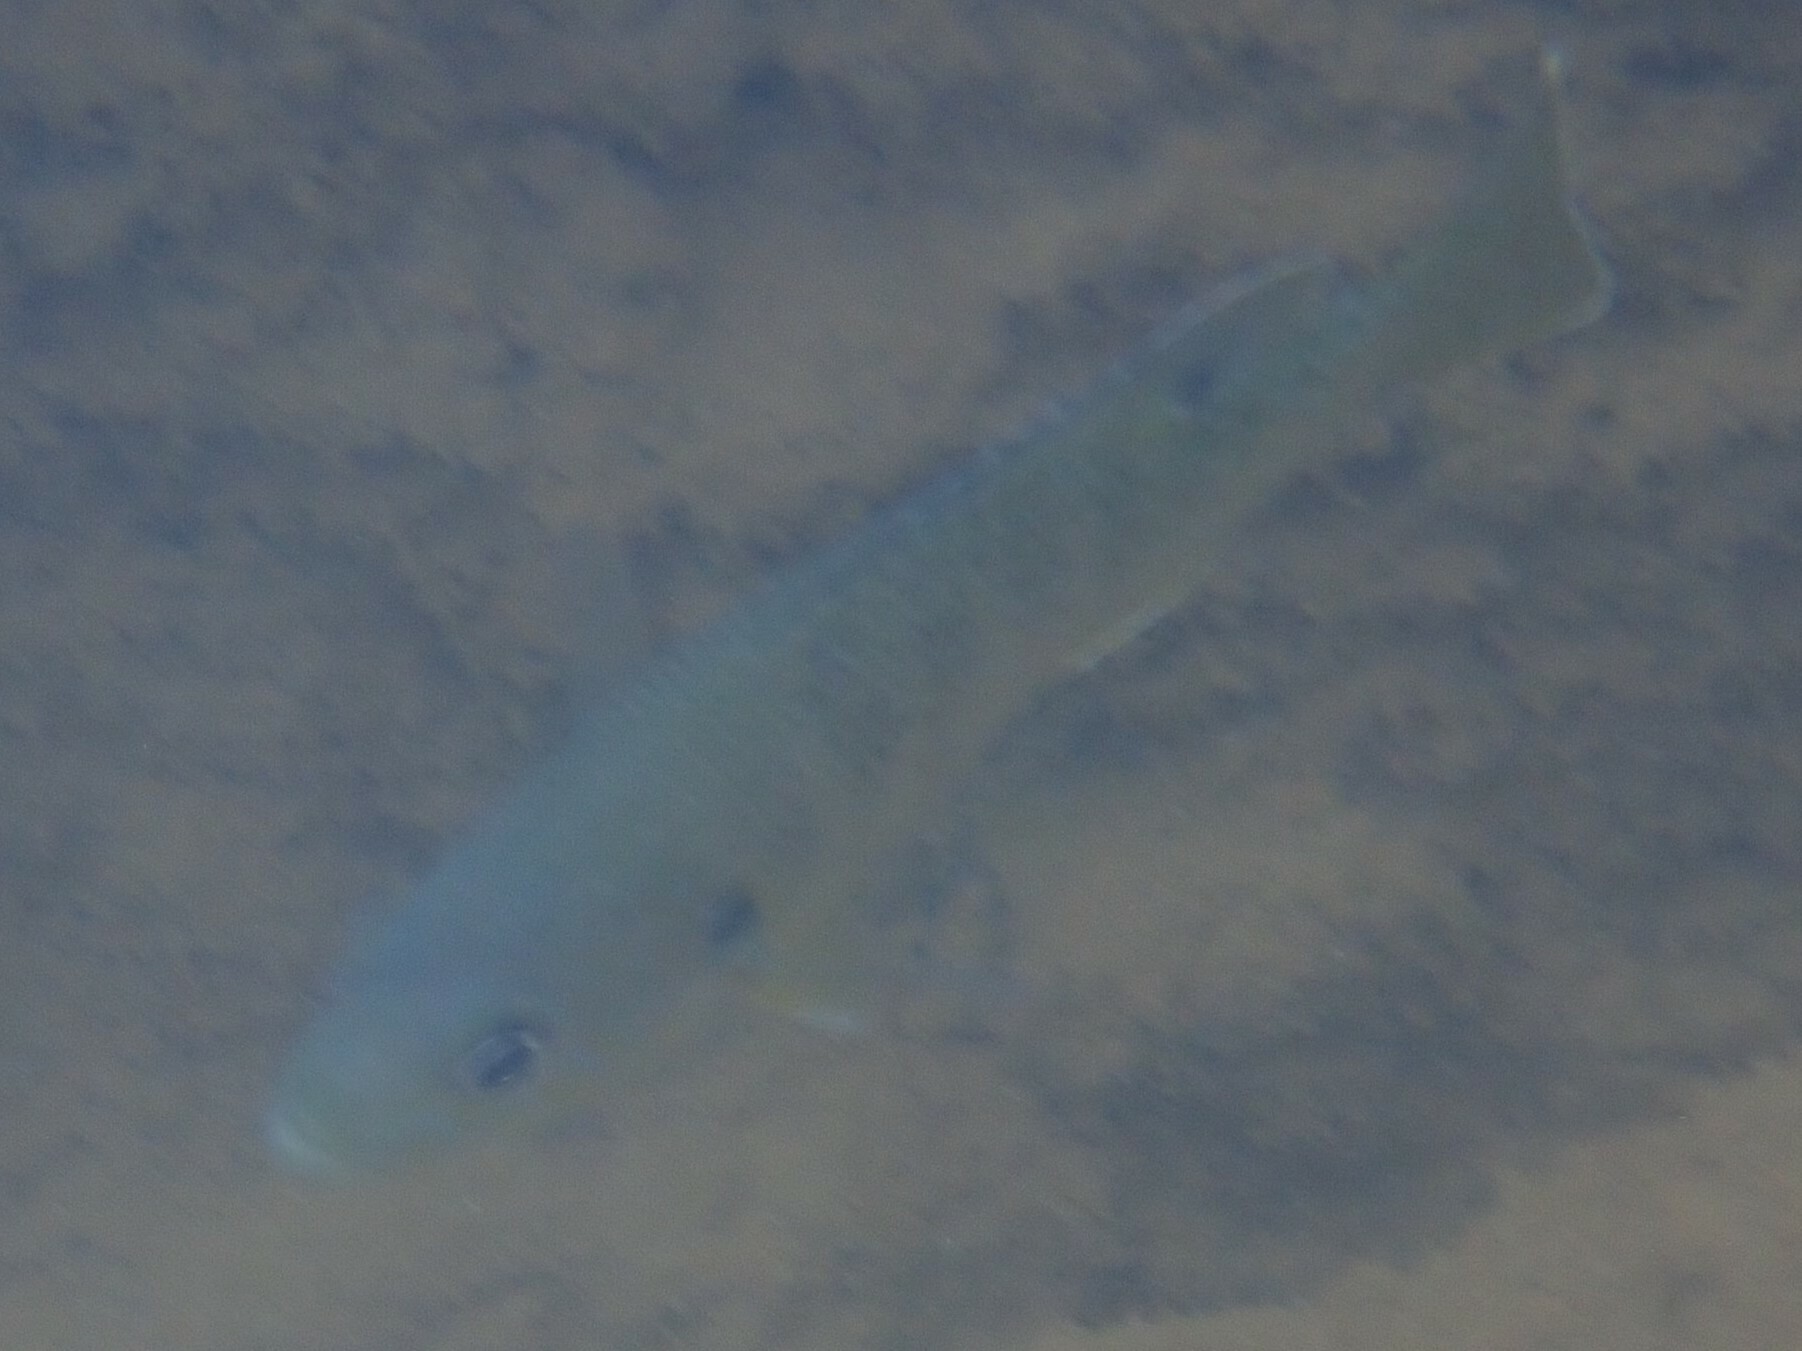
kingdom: Animalia
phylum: Chordata
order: Perciformes
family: Centrarchidae
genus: Lepomis
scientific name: Lepomis cyanellus
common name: Green sunfish
